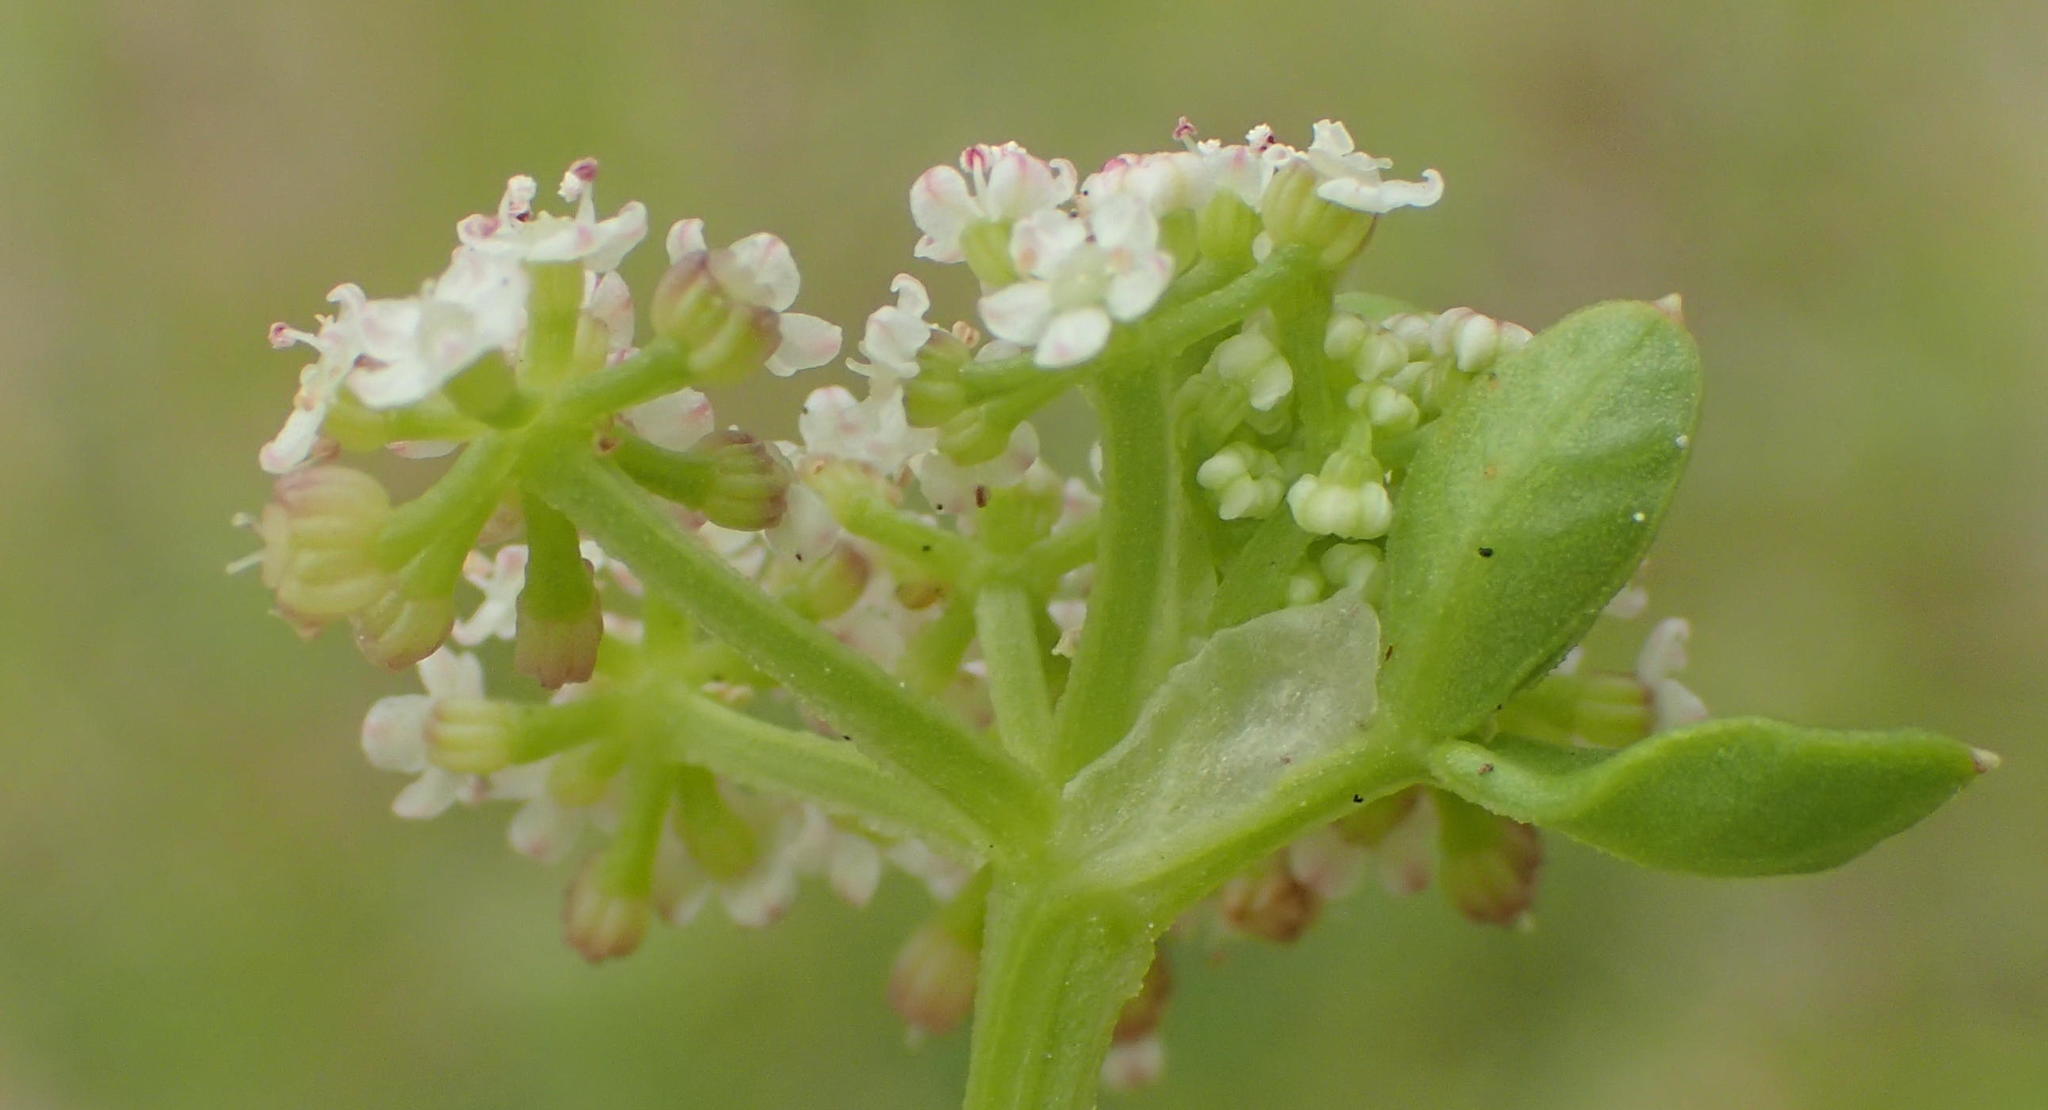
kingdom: Plantae
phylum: Tracheophyta
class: Magnoliopsida
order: Apiales
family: Apiaceae
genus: Apium
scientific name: Apium decumbens
